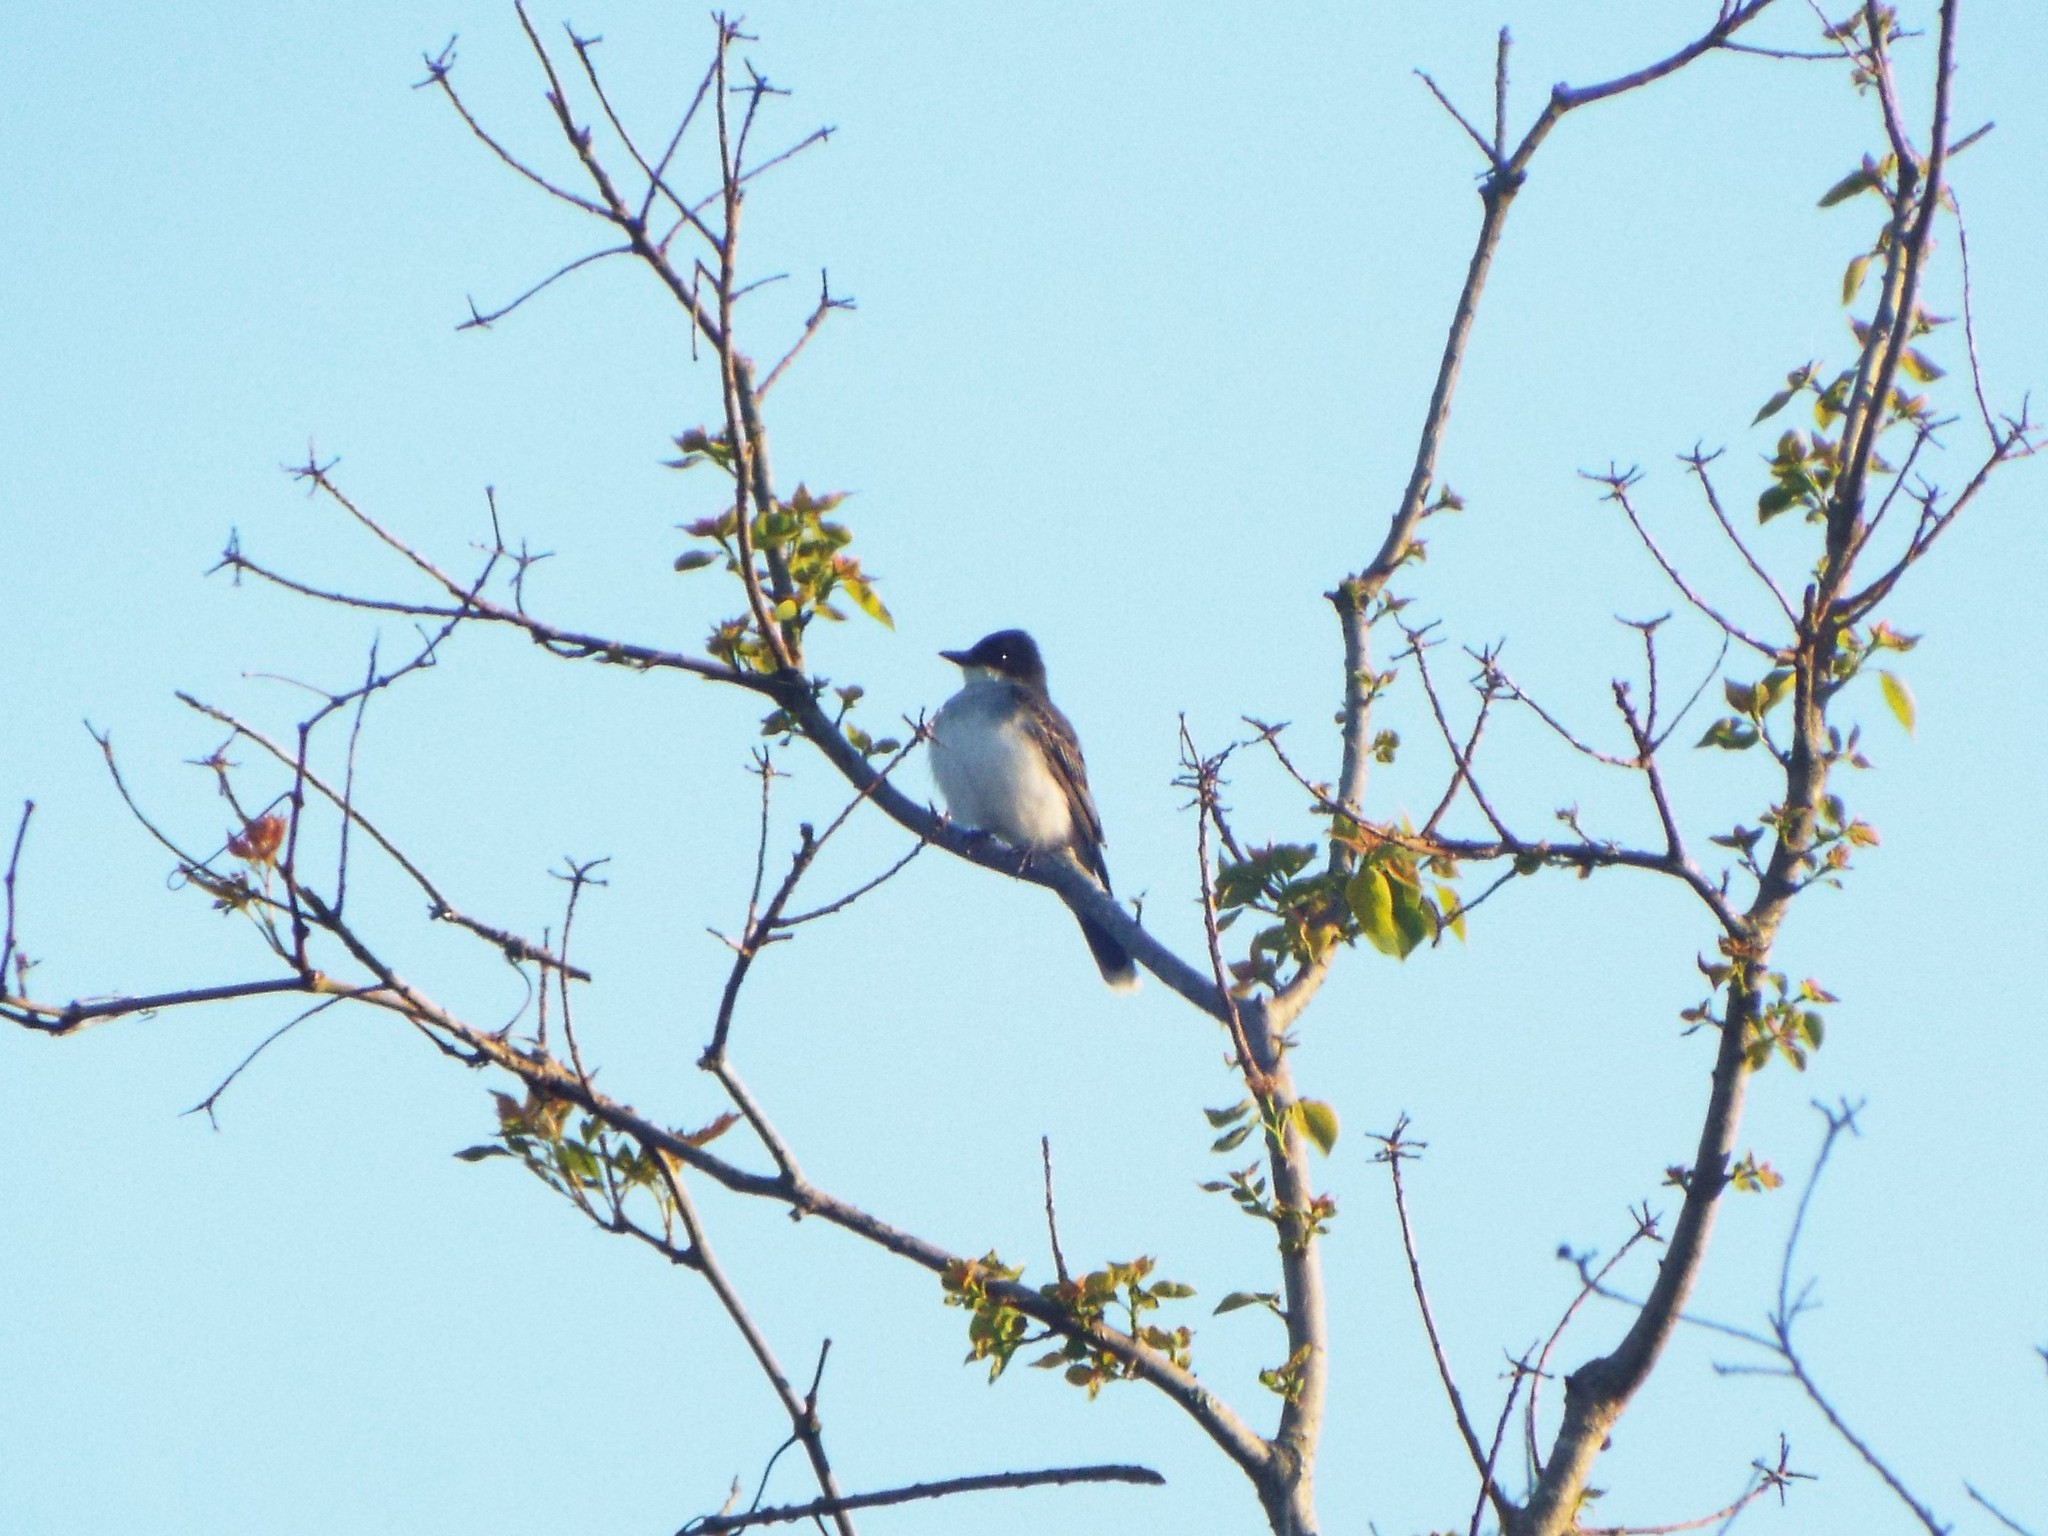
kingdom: Animalia
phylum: Chordata
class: Aves
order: Passeriformes
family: Tyrannidae
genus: Tyrannus
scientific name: Tyrannus tyrannus
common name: Eastern kingbird
